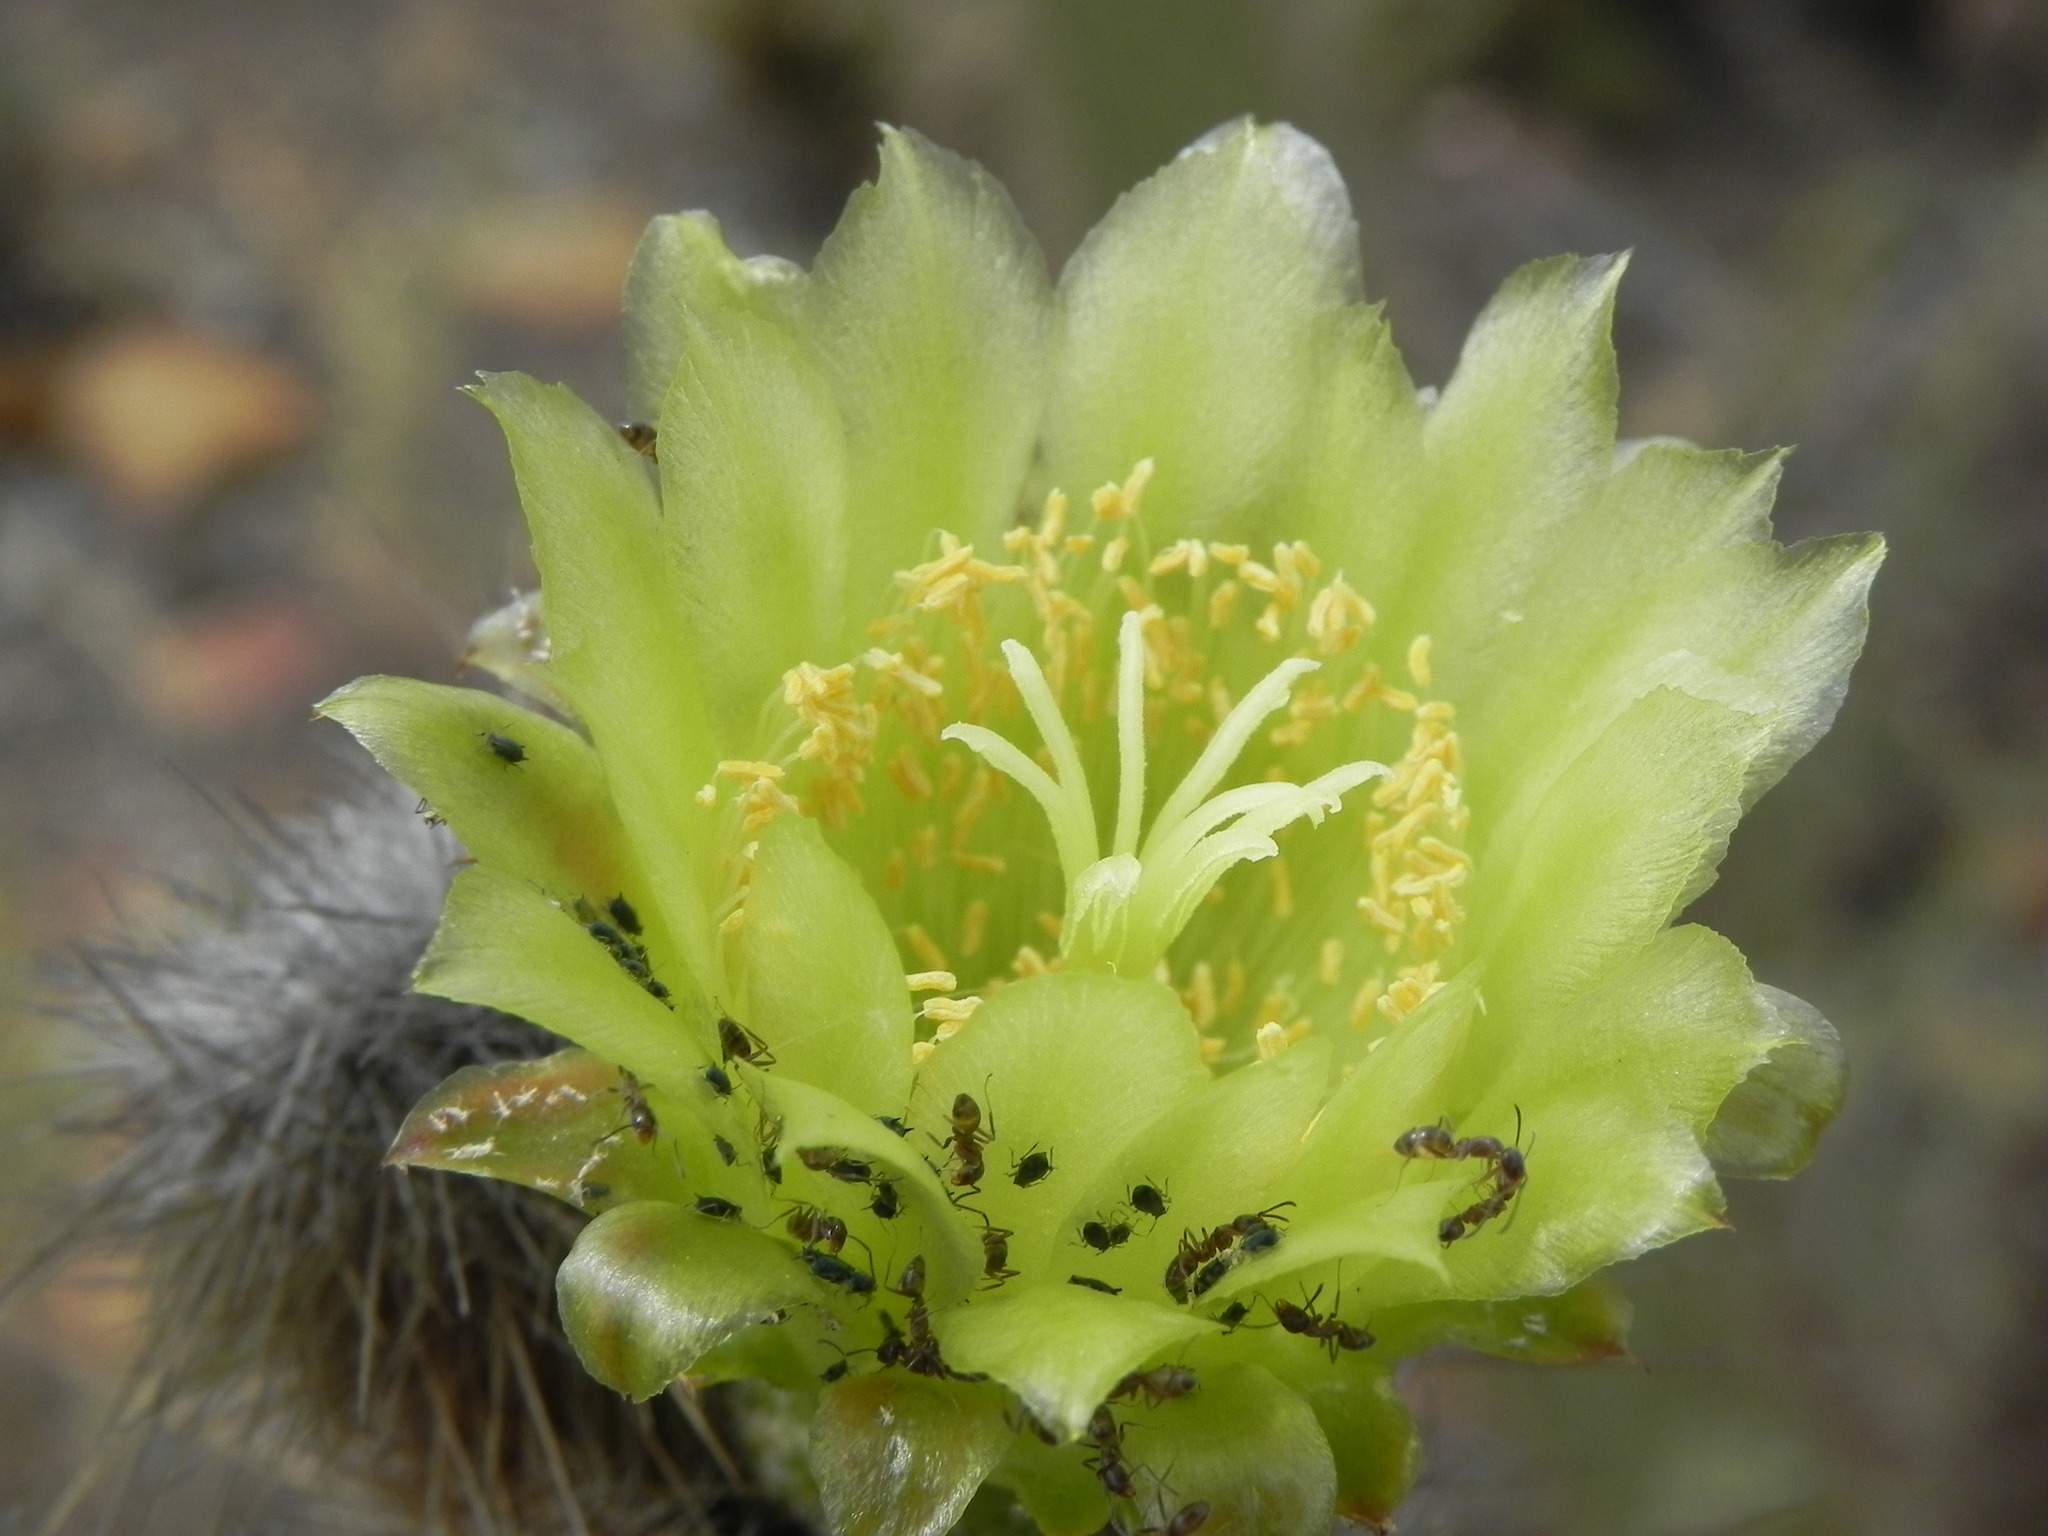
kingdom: Plantae
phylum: Tracheophyta
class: Magnoliopsida
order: Caryophyllales
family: Cactaceae
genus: Bergerocactus
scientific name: Bergerocactus emoryi
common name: Golden snakecactus
